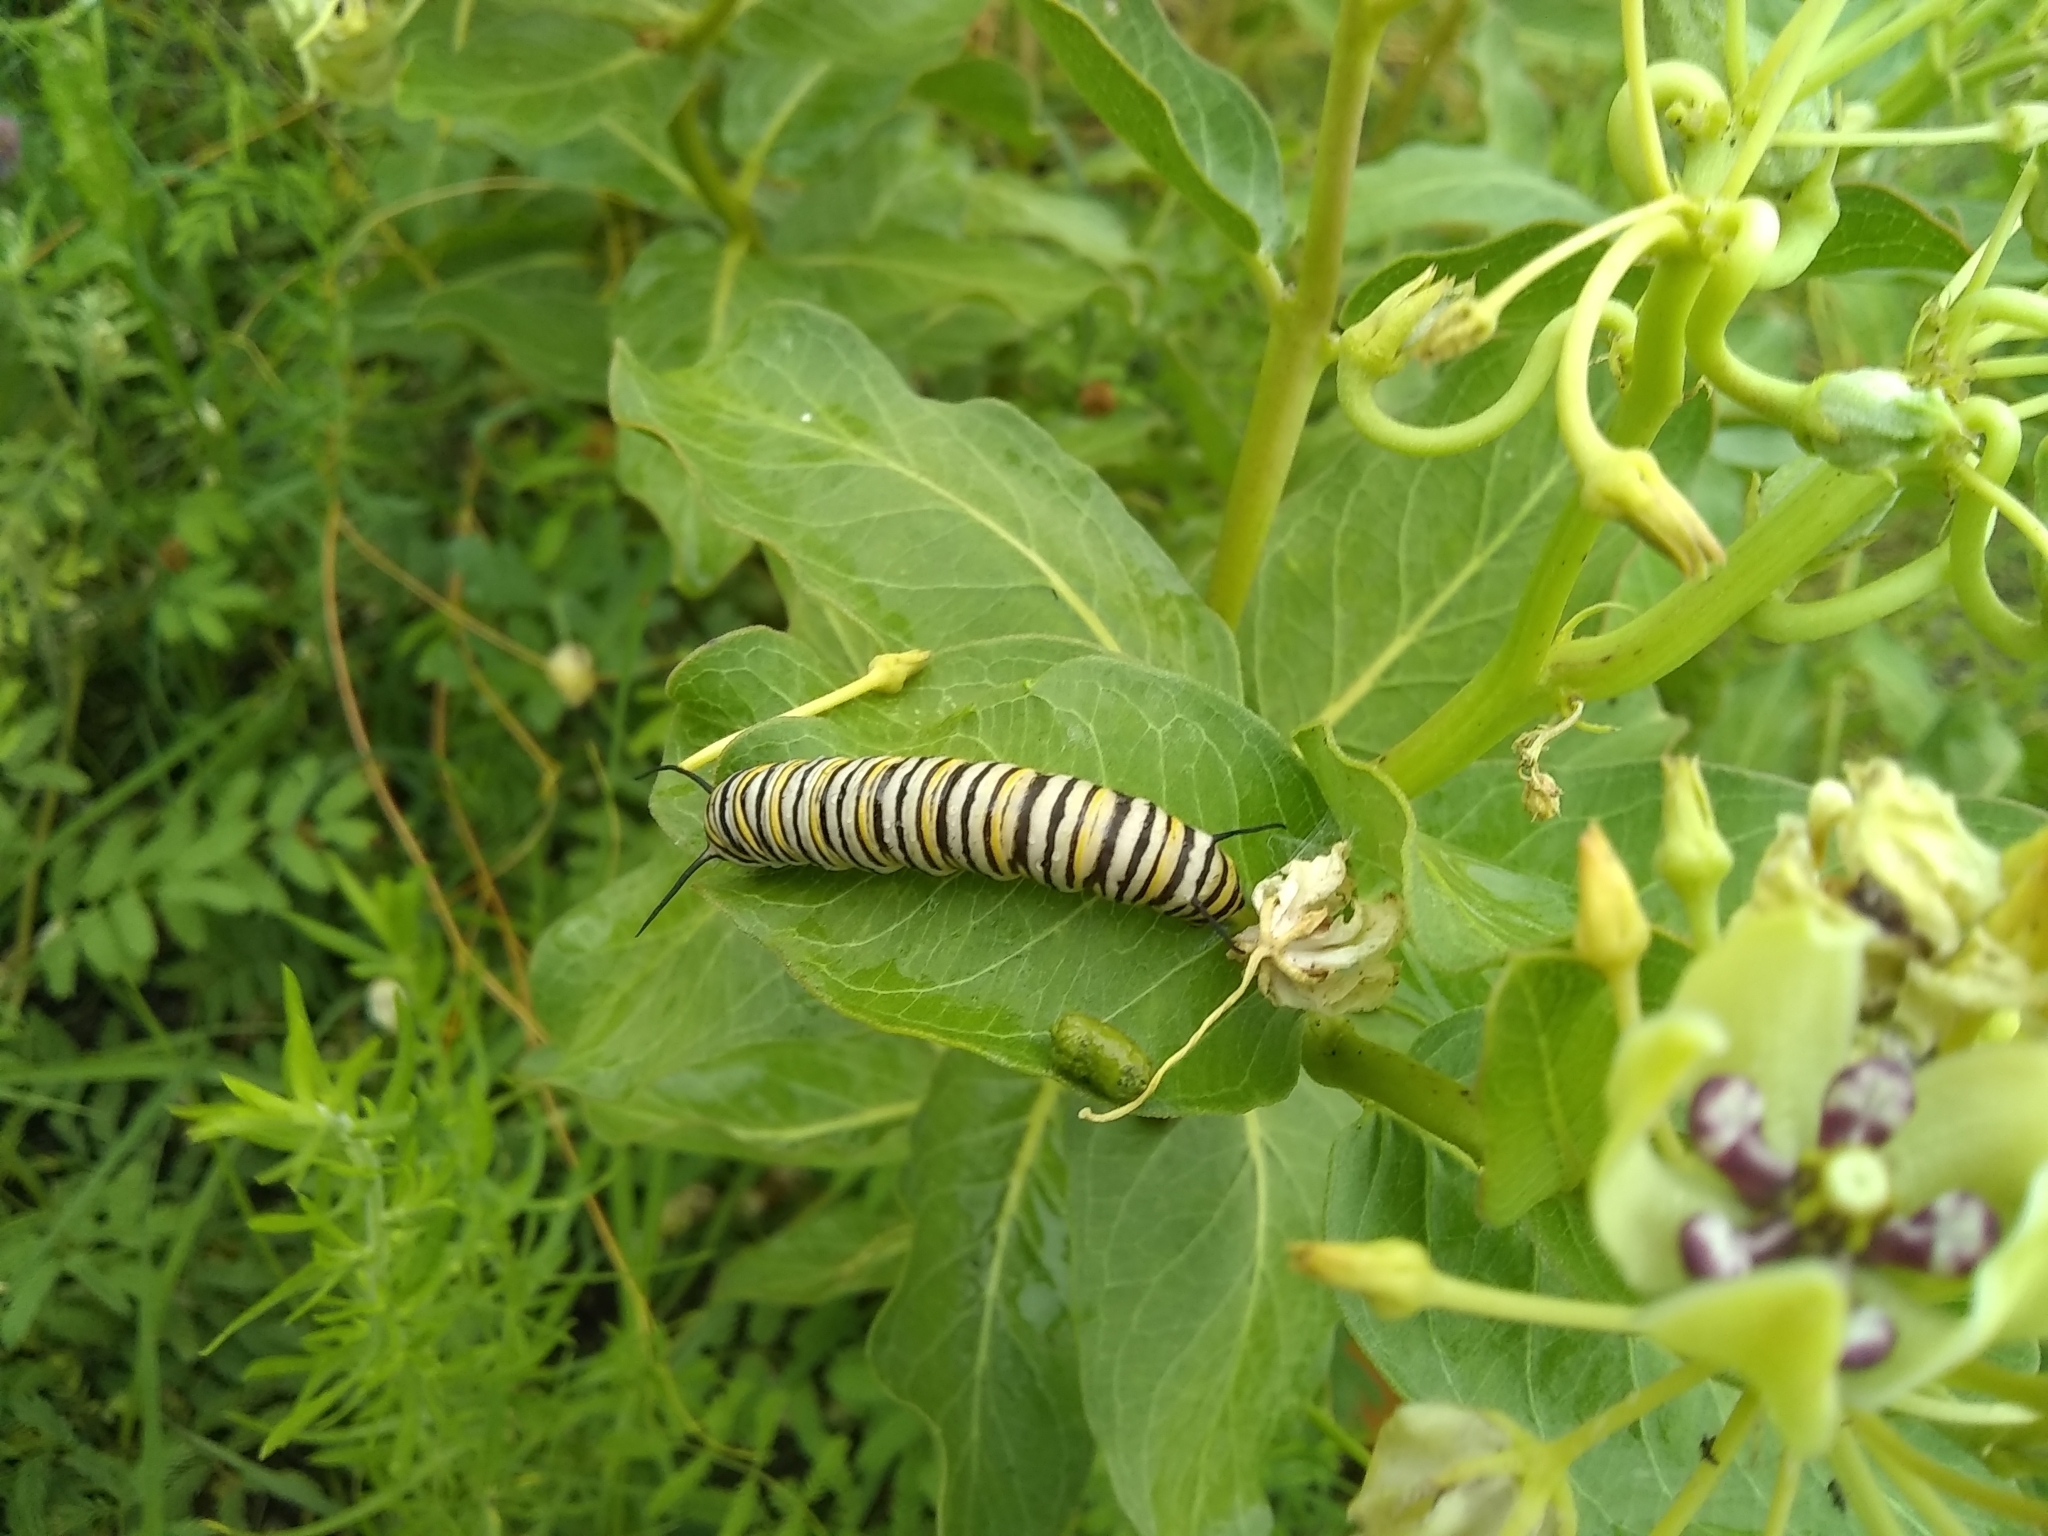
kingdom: Animalia
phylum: Arthropoda
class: Insecta
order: Lepidoptera
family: Nymphalidae
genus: Danaus
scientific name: Danaus plexippus
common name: Monarch
